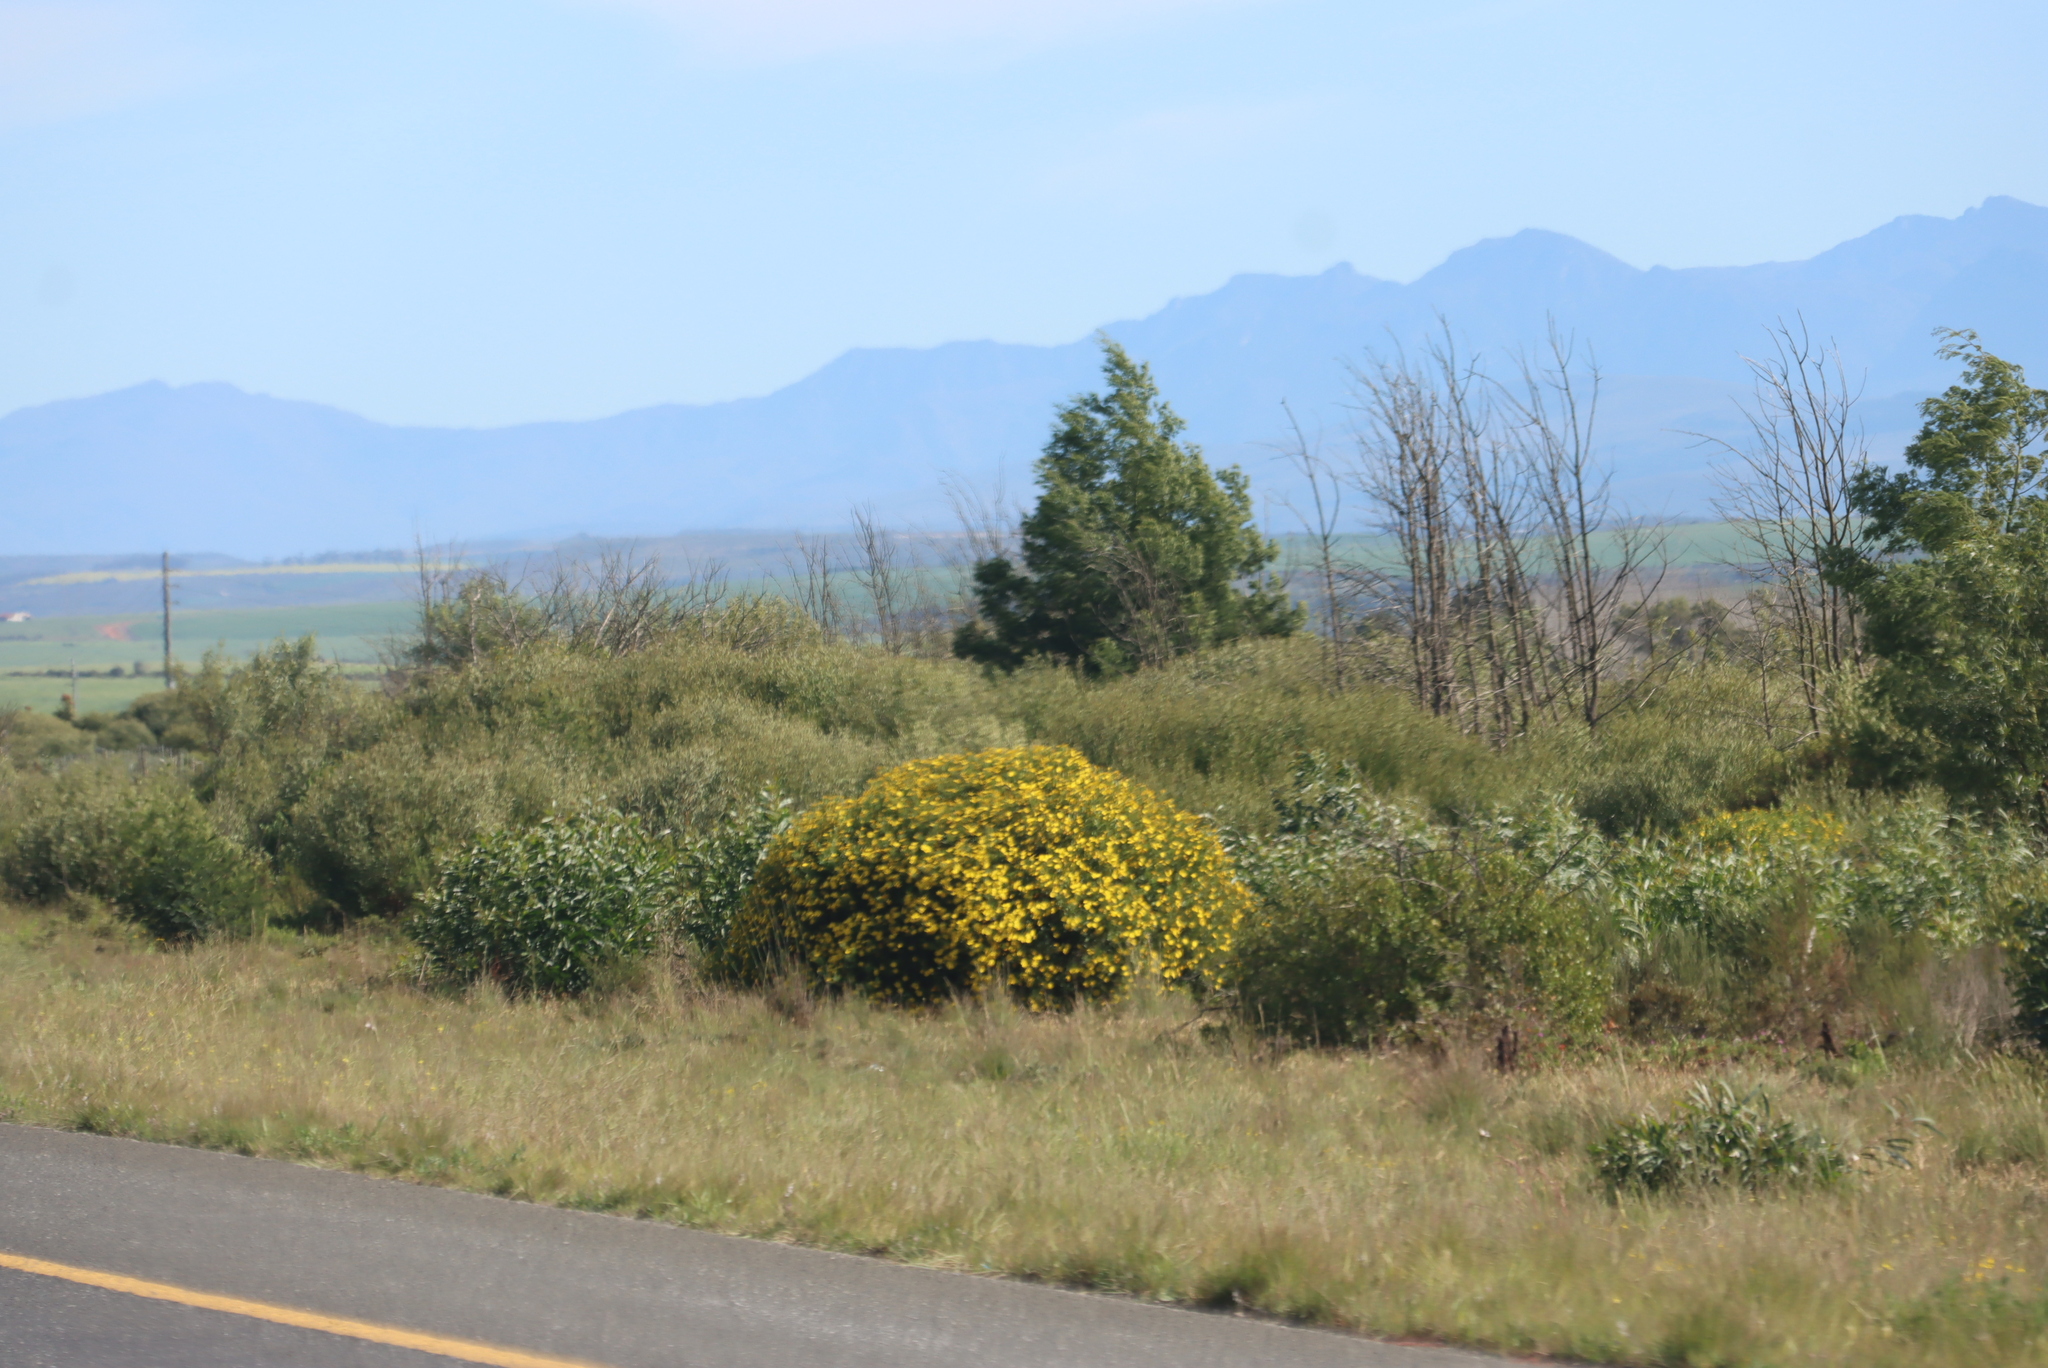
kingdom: Plantae
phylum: Tracheophyta
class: Magnoliopsida
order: Fabales
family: Fabaceae
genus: Acacia
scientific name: Acacia saligna
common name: Orange wattle
